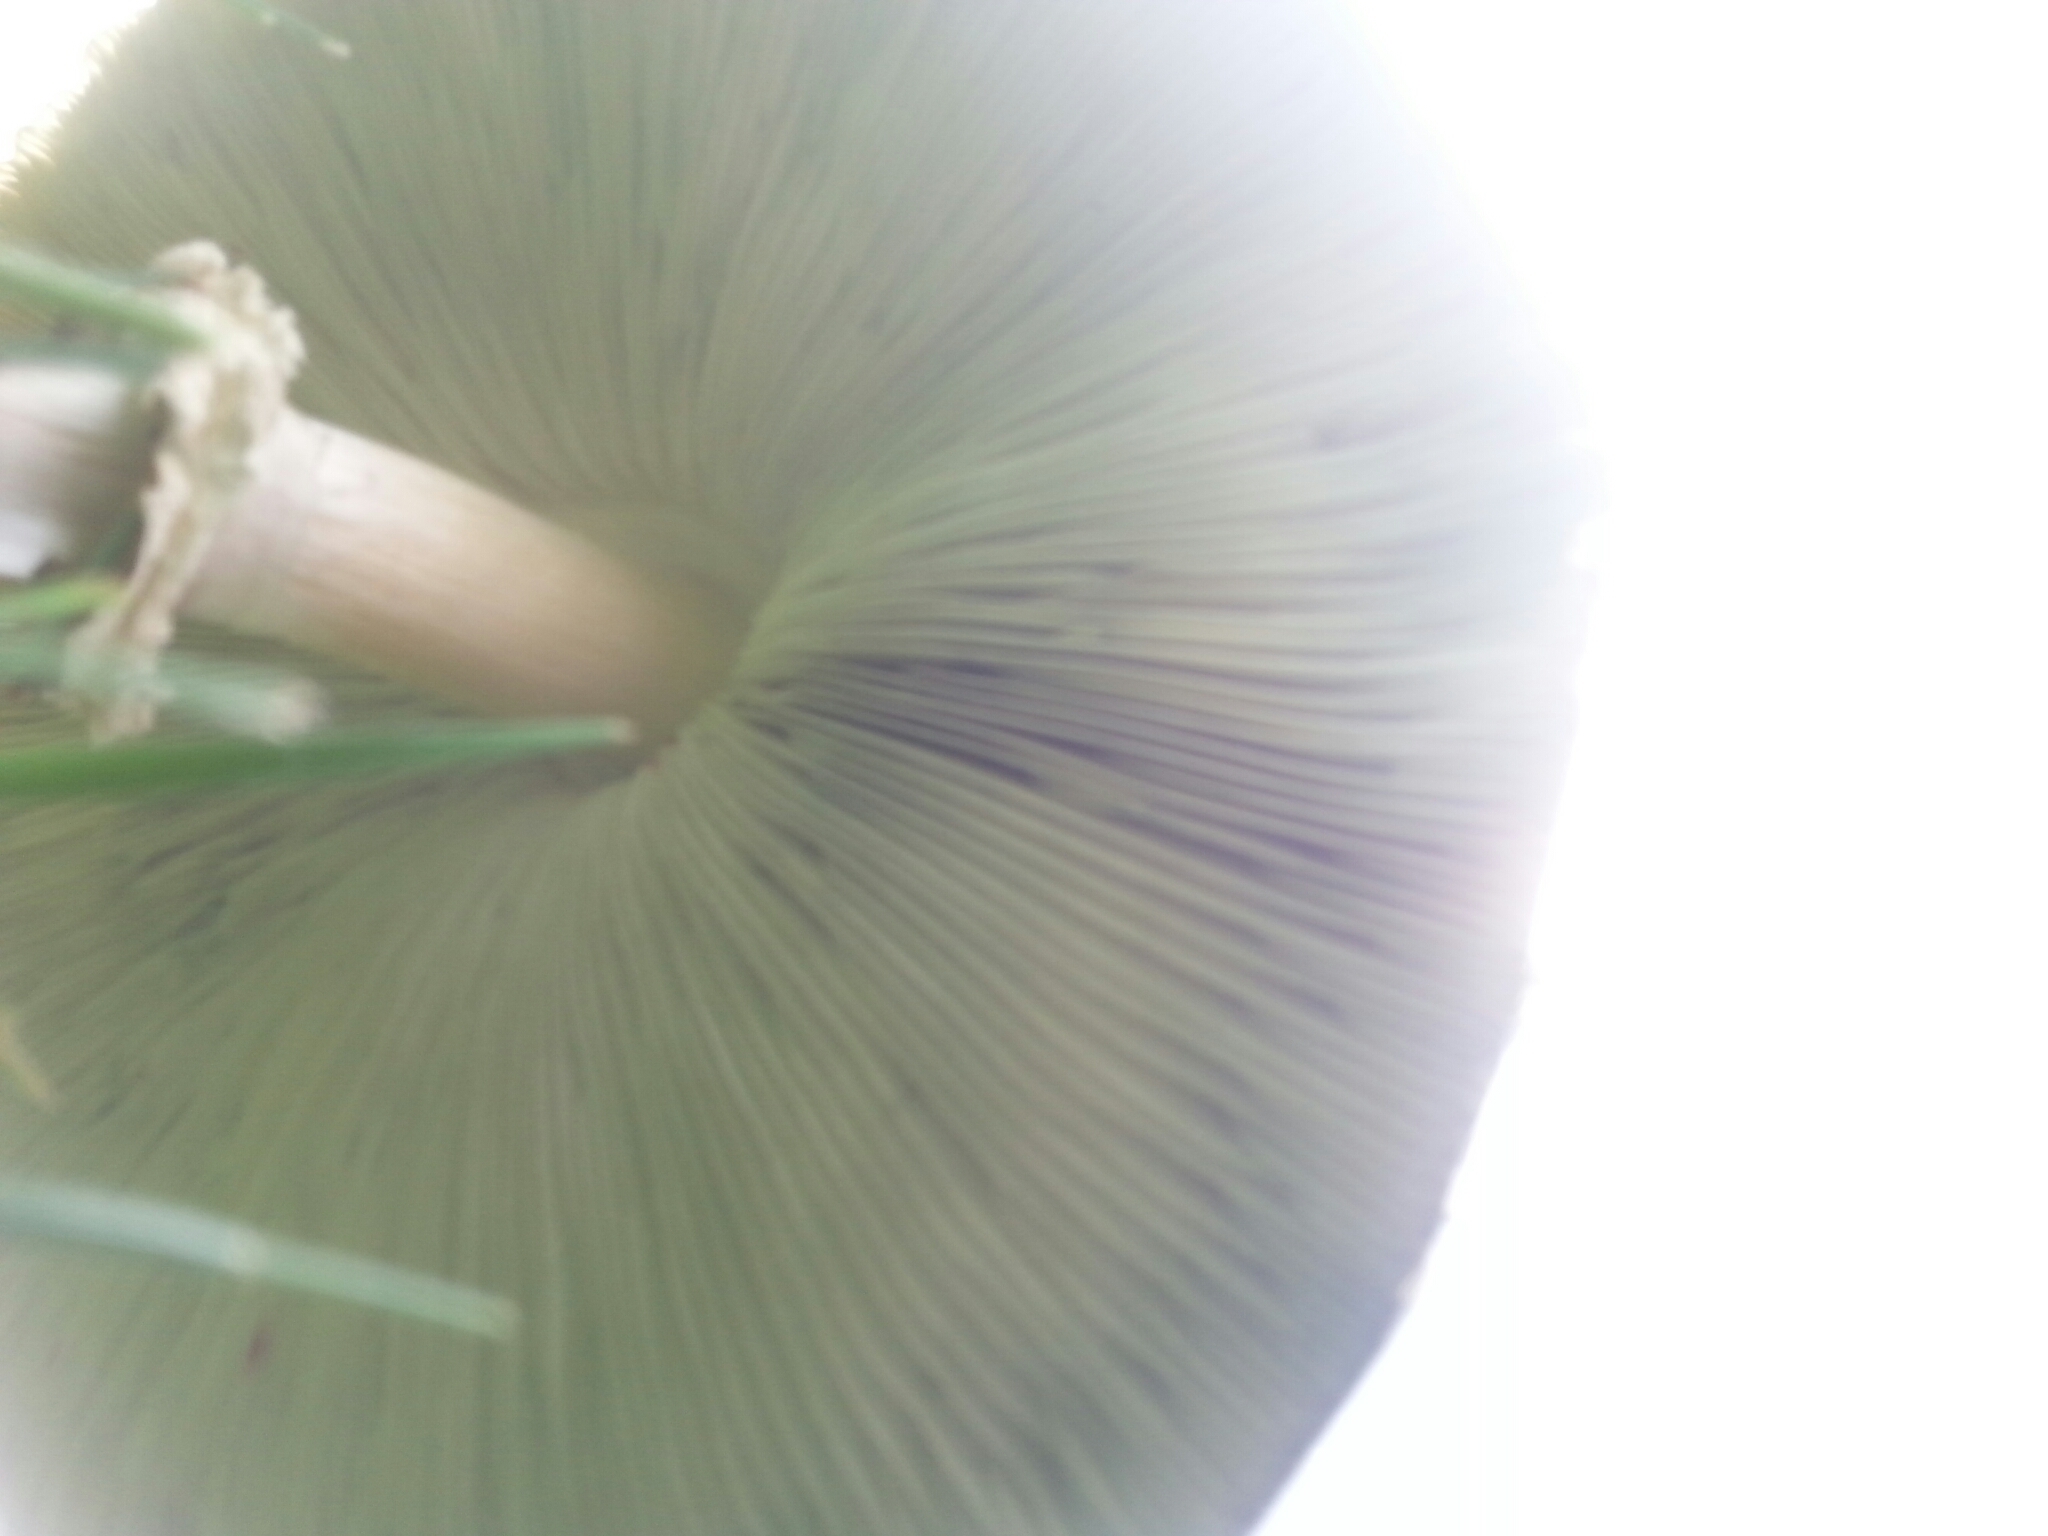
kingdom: Fungi
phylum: Basidiomycota
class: Agaricomycetes
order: Agaricales
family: Agaricaceae
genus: Chlorophyllum
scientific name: Chlorophyllum molybdites
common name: False parasol
